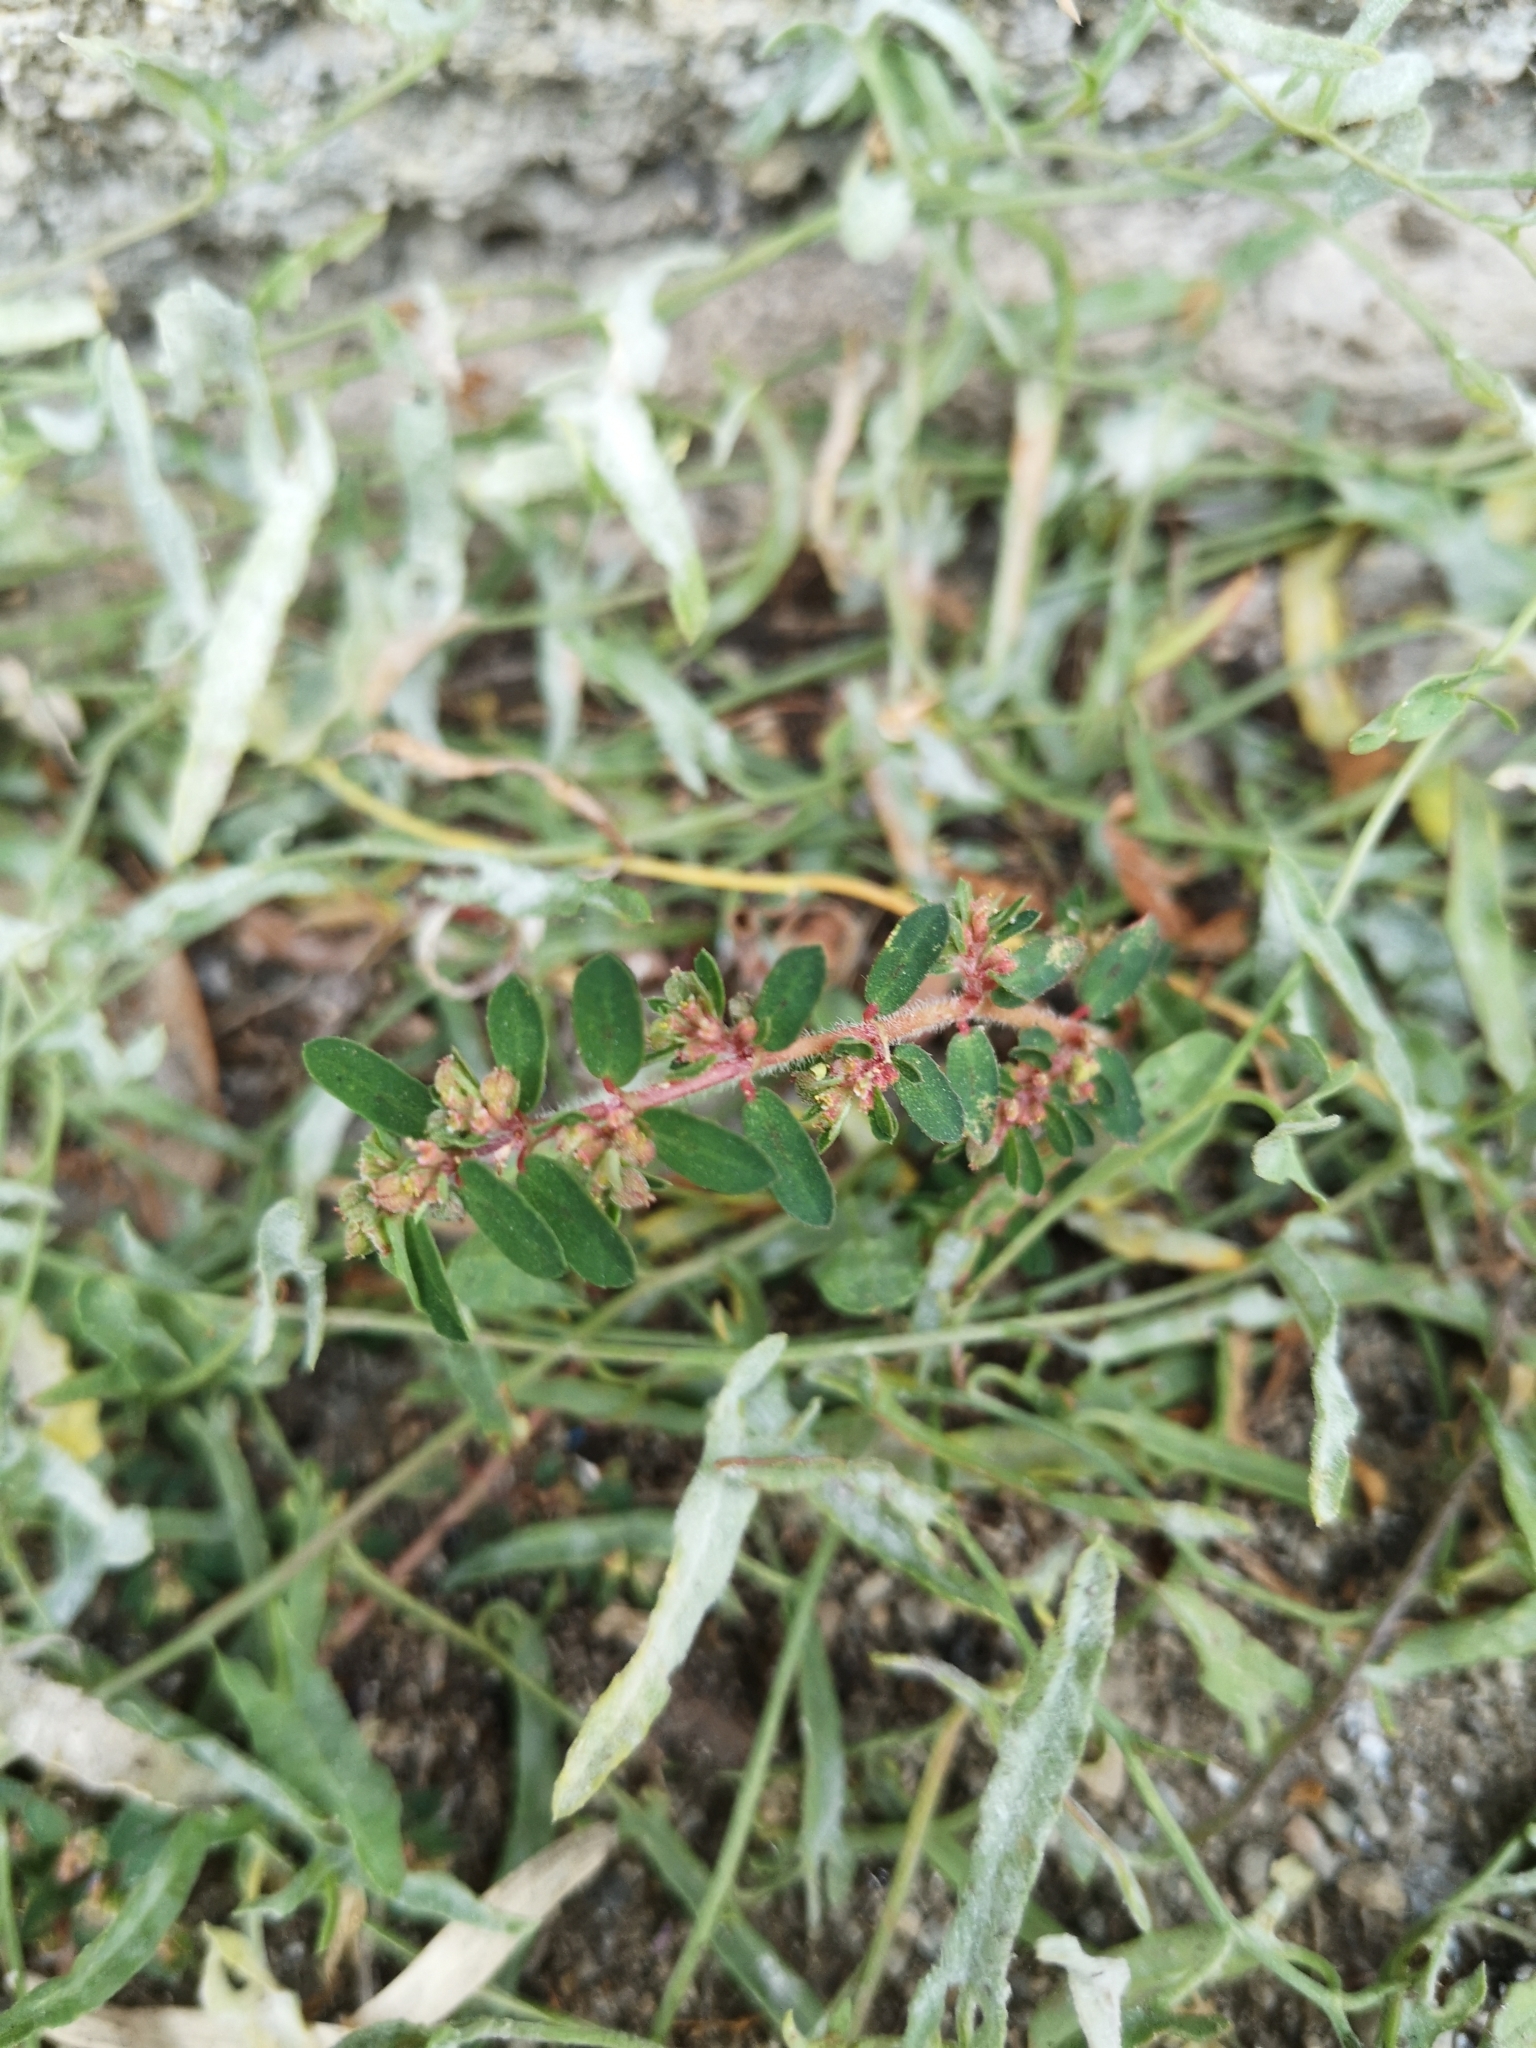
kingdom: Plantae
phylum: Tracheophyta
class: Magnoliopsida
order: Malpighiales
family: Euphorbiaceae
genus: Euphorbia
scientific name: Euphorbia maculata
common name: Spotted spurge
